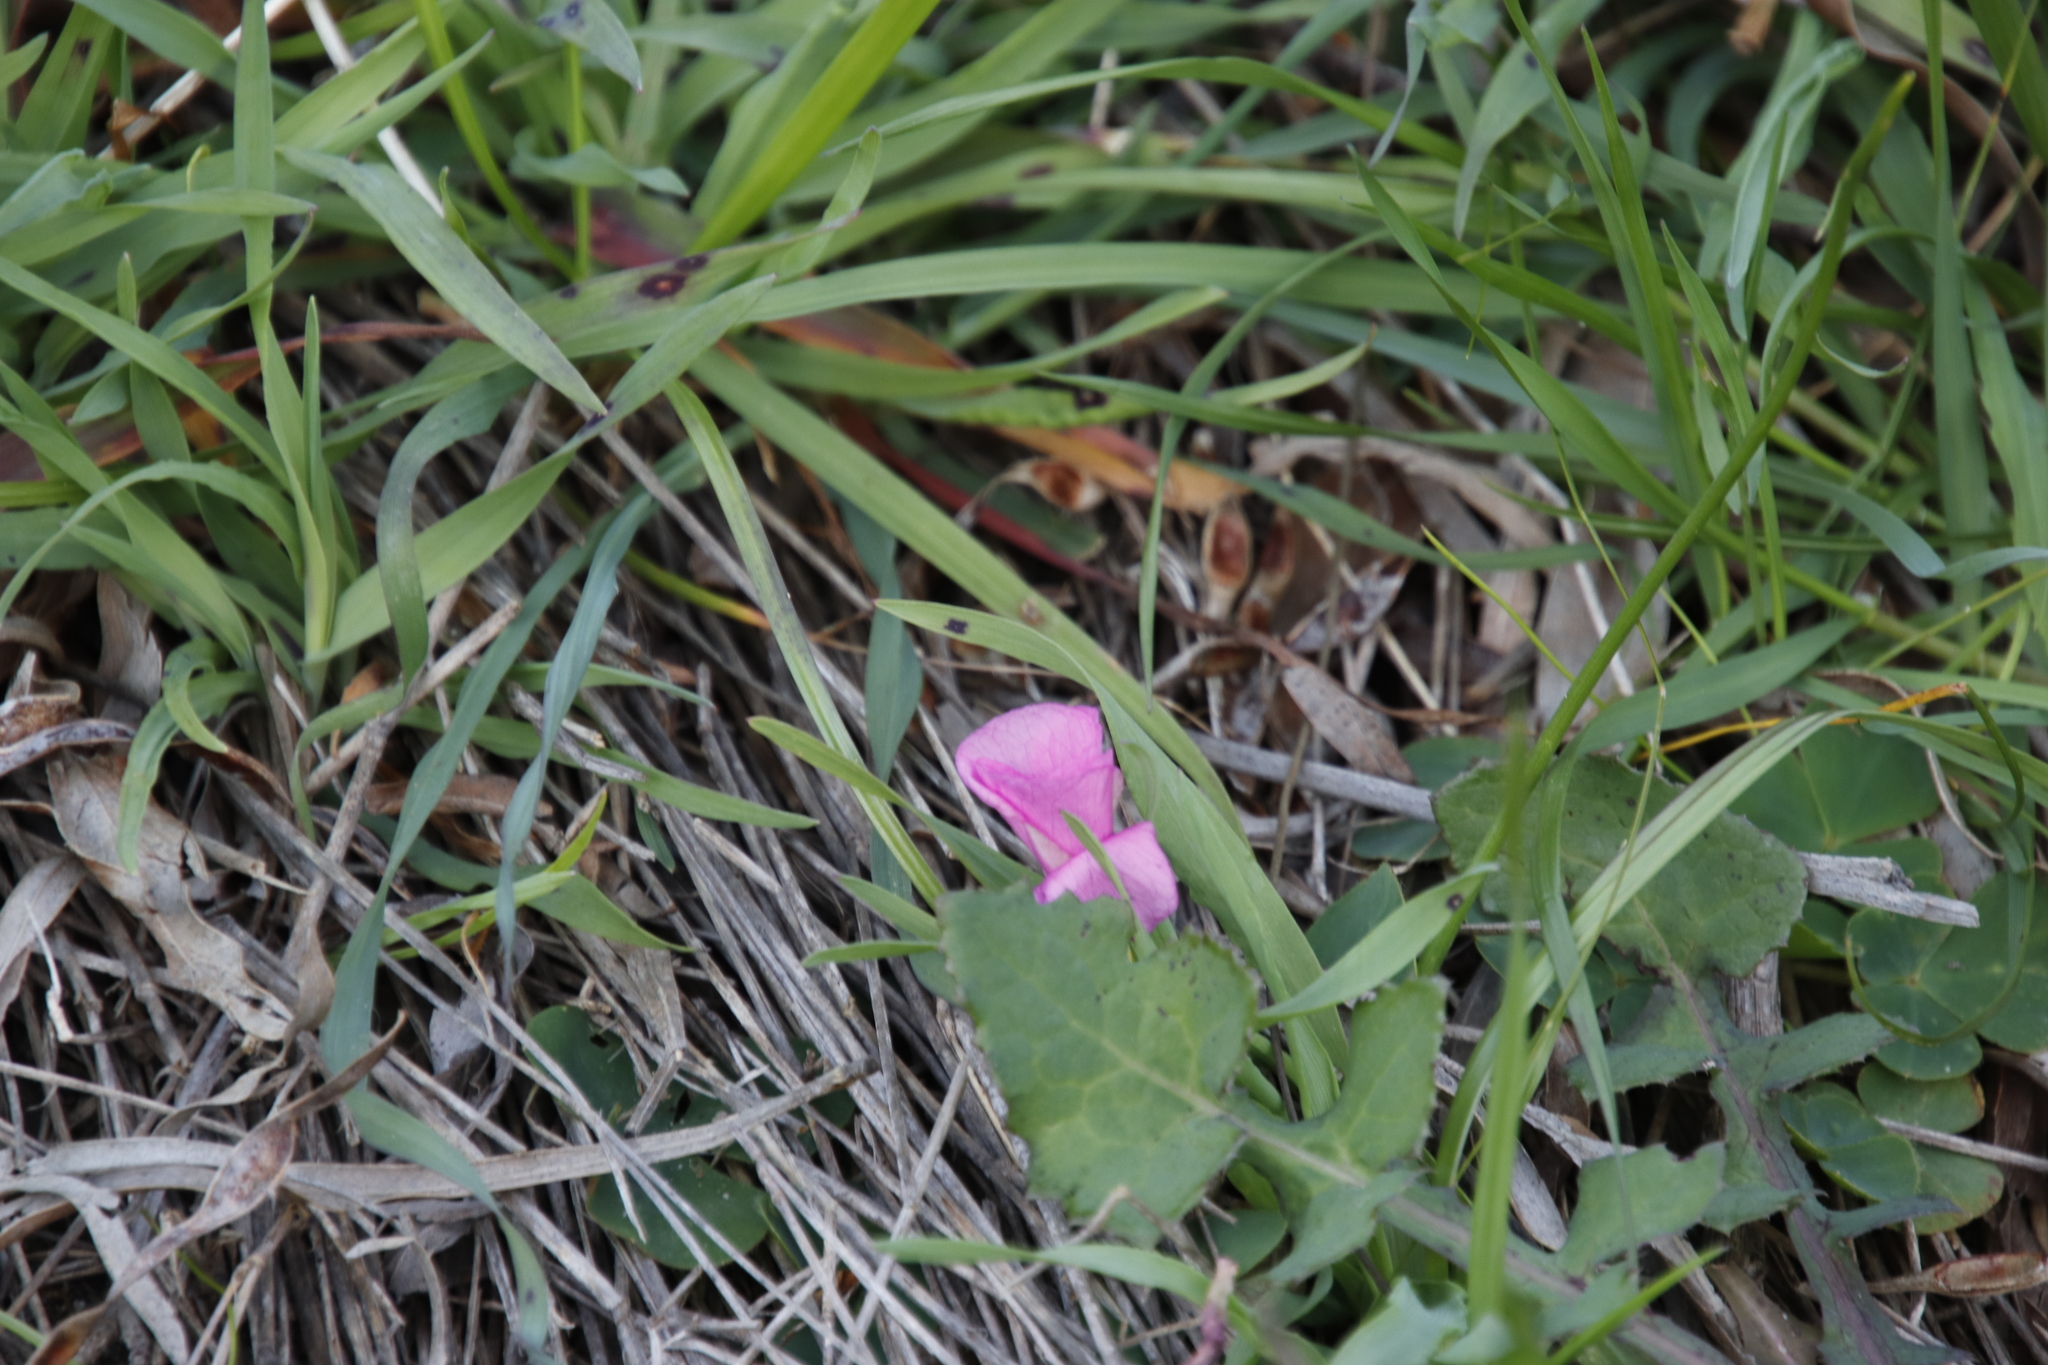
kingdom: Plantae
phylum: Tracheophyta
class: Magnoliopsida
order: Oxalidales
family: Oxalidaceae
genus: Oxalis
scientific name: Oxalis purpurea
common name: Purple woodsorrel
